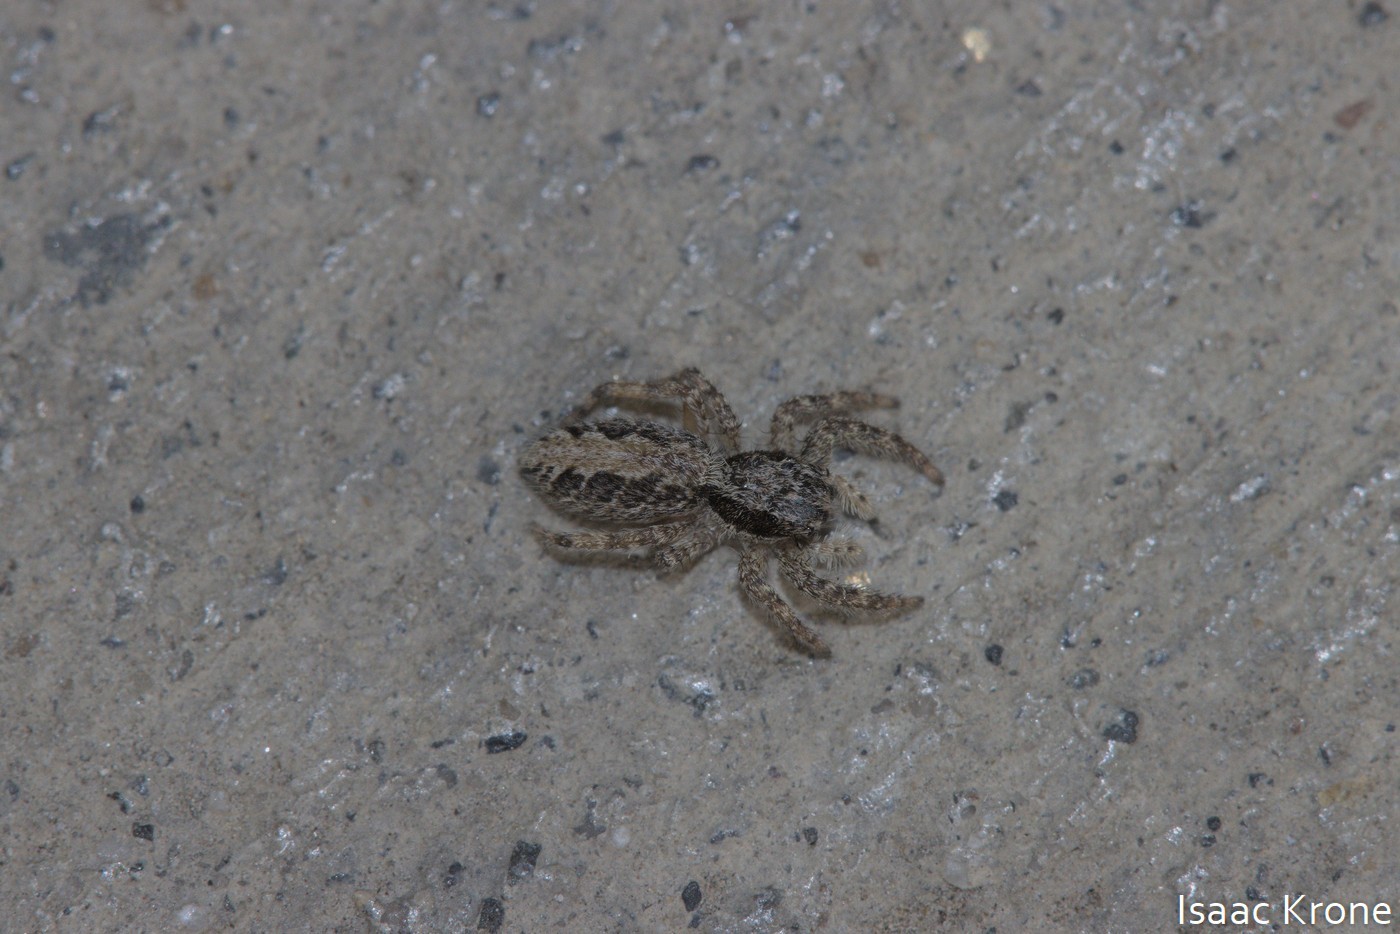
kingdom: Animalia
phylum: Arthropoda
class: Arachnida
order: Araneae
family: Salticidae
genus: Platycryptus
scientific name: Platycryptus californicus
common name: Jumping spiders
